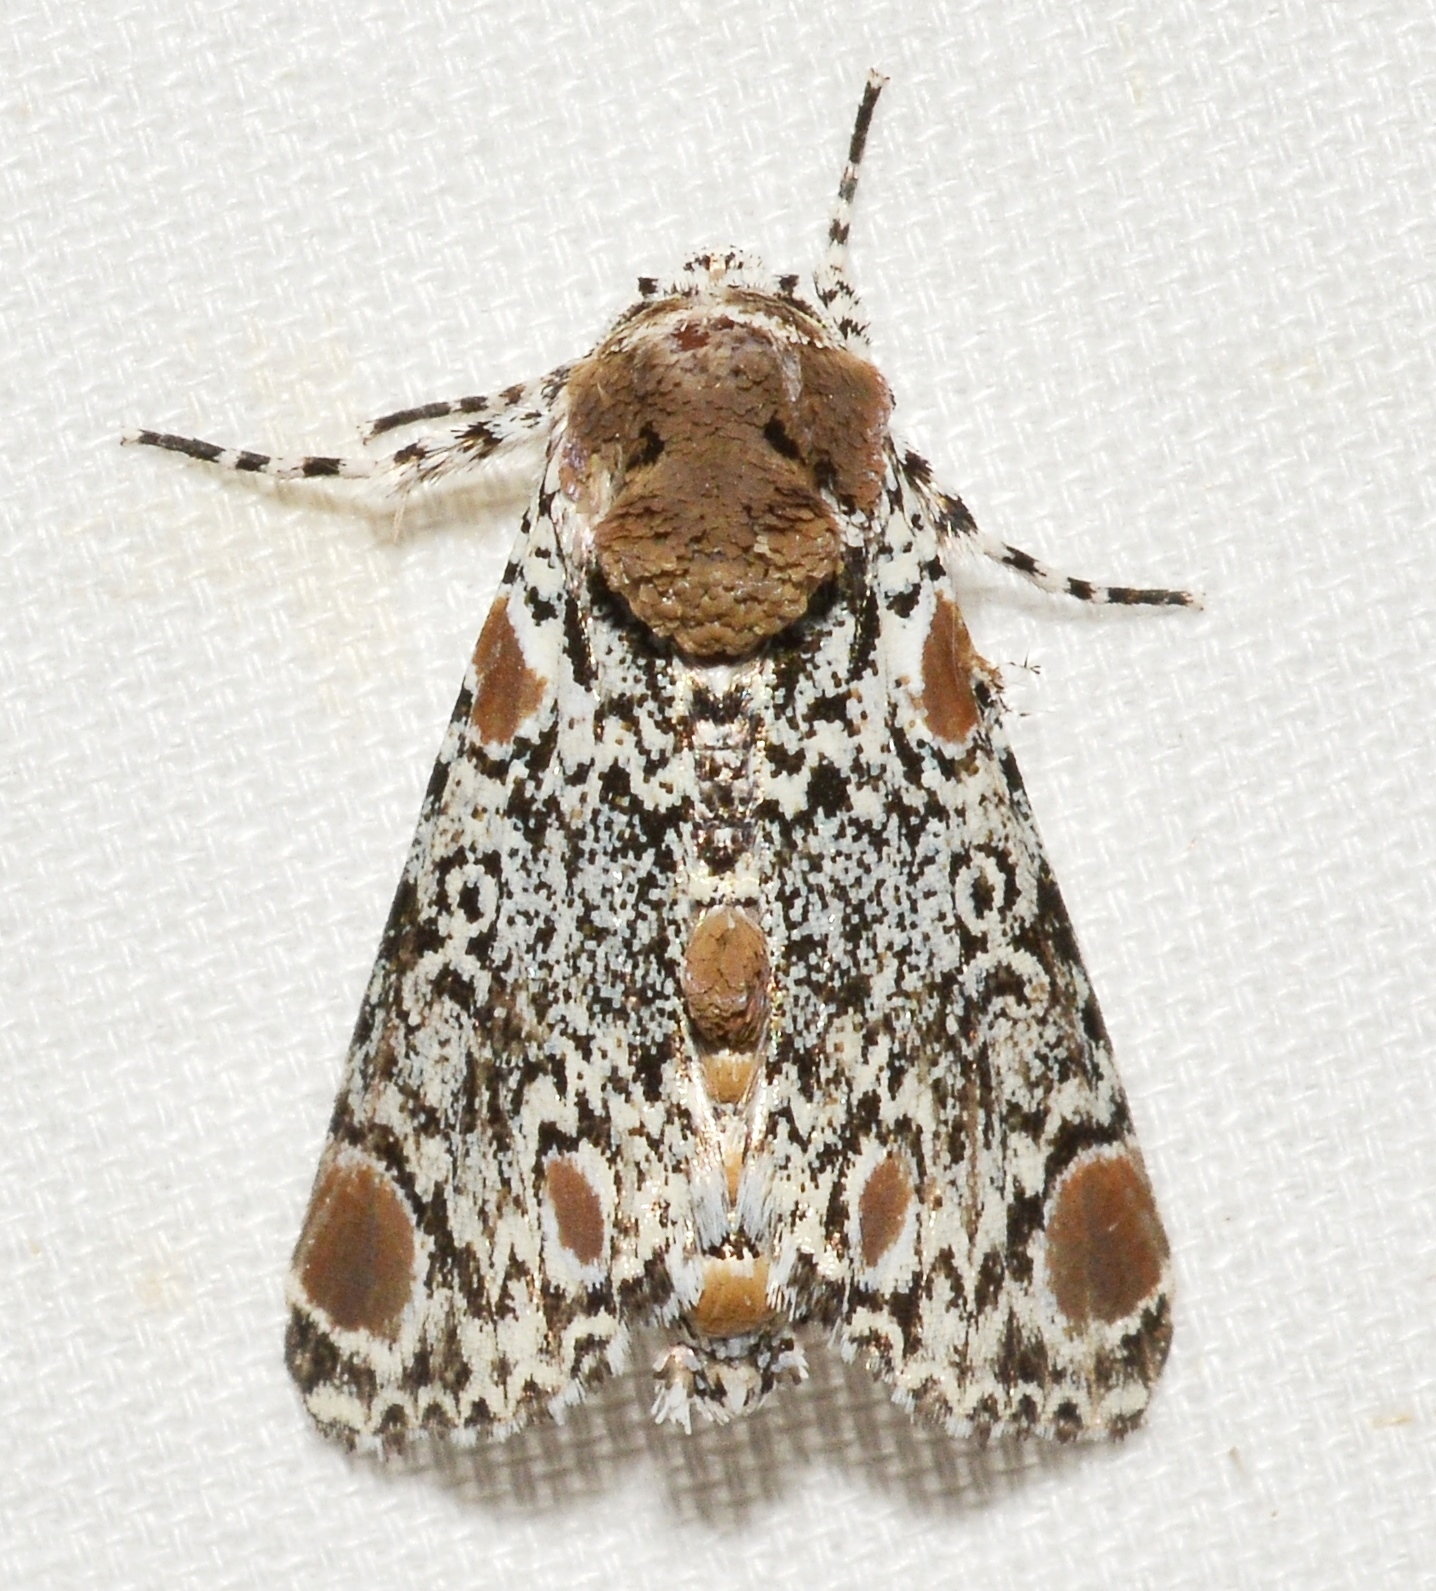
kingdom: Animalia
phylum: Arthropoda
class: Insecta
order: Lepidoptera
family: Noctuidae
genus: Harrisimemna
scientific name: Harrisimemna trisignata
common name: Harris threespot
